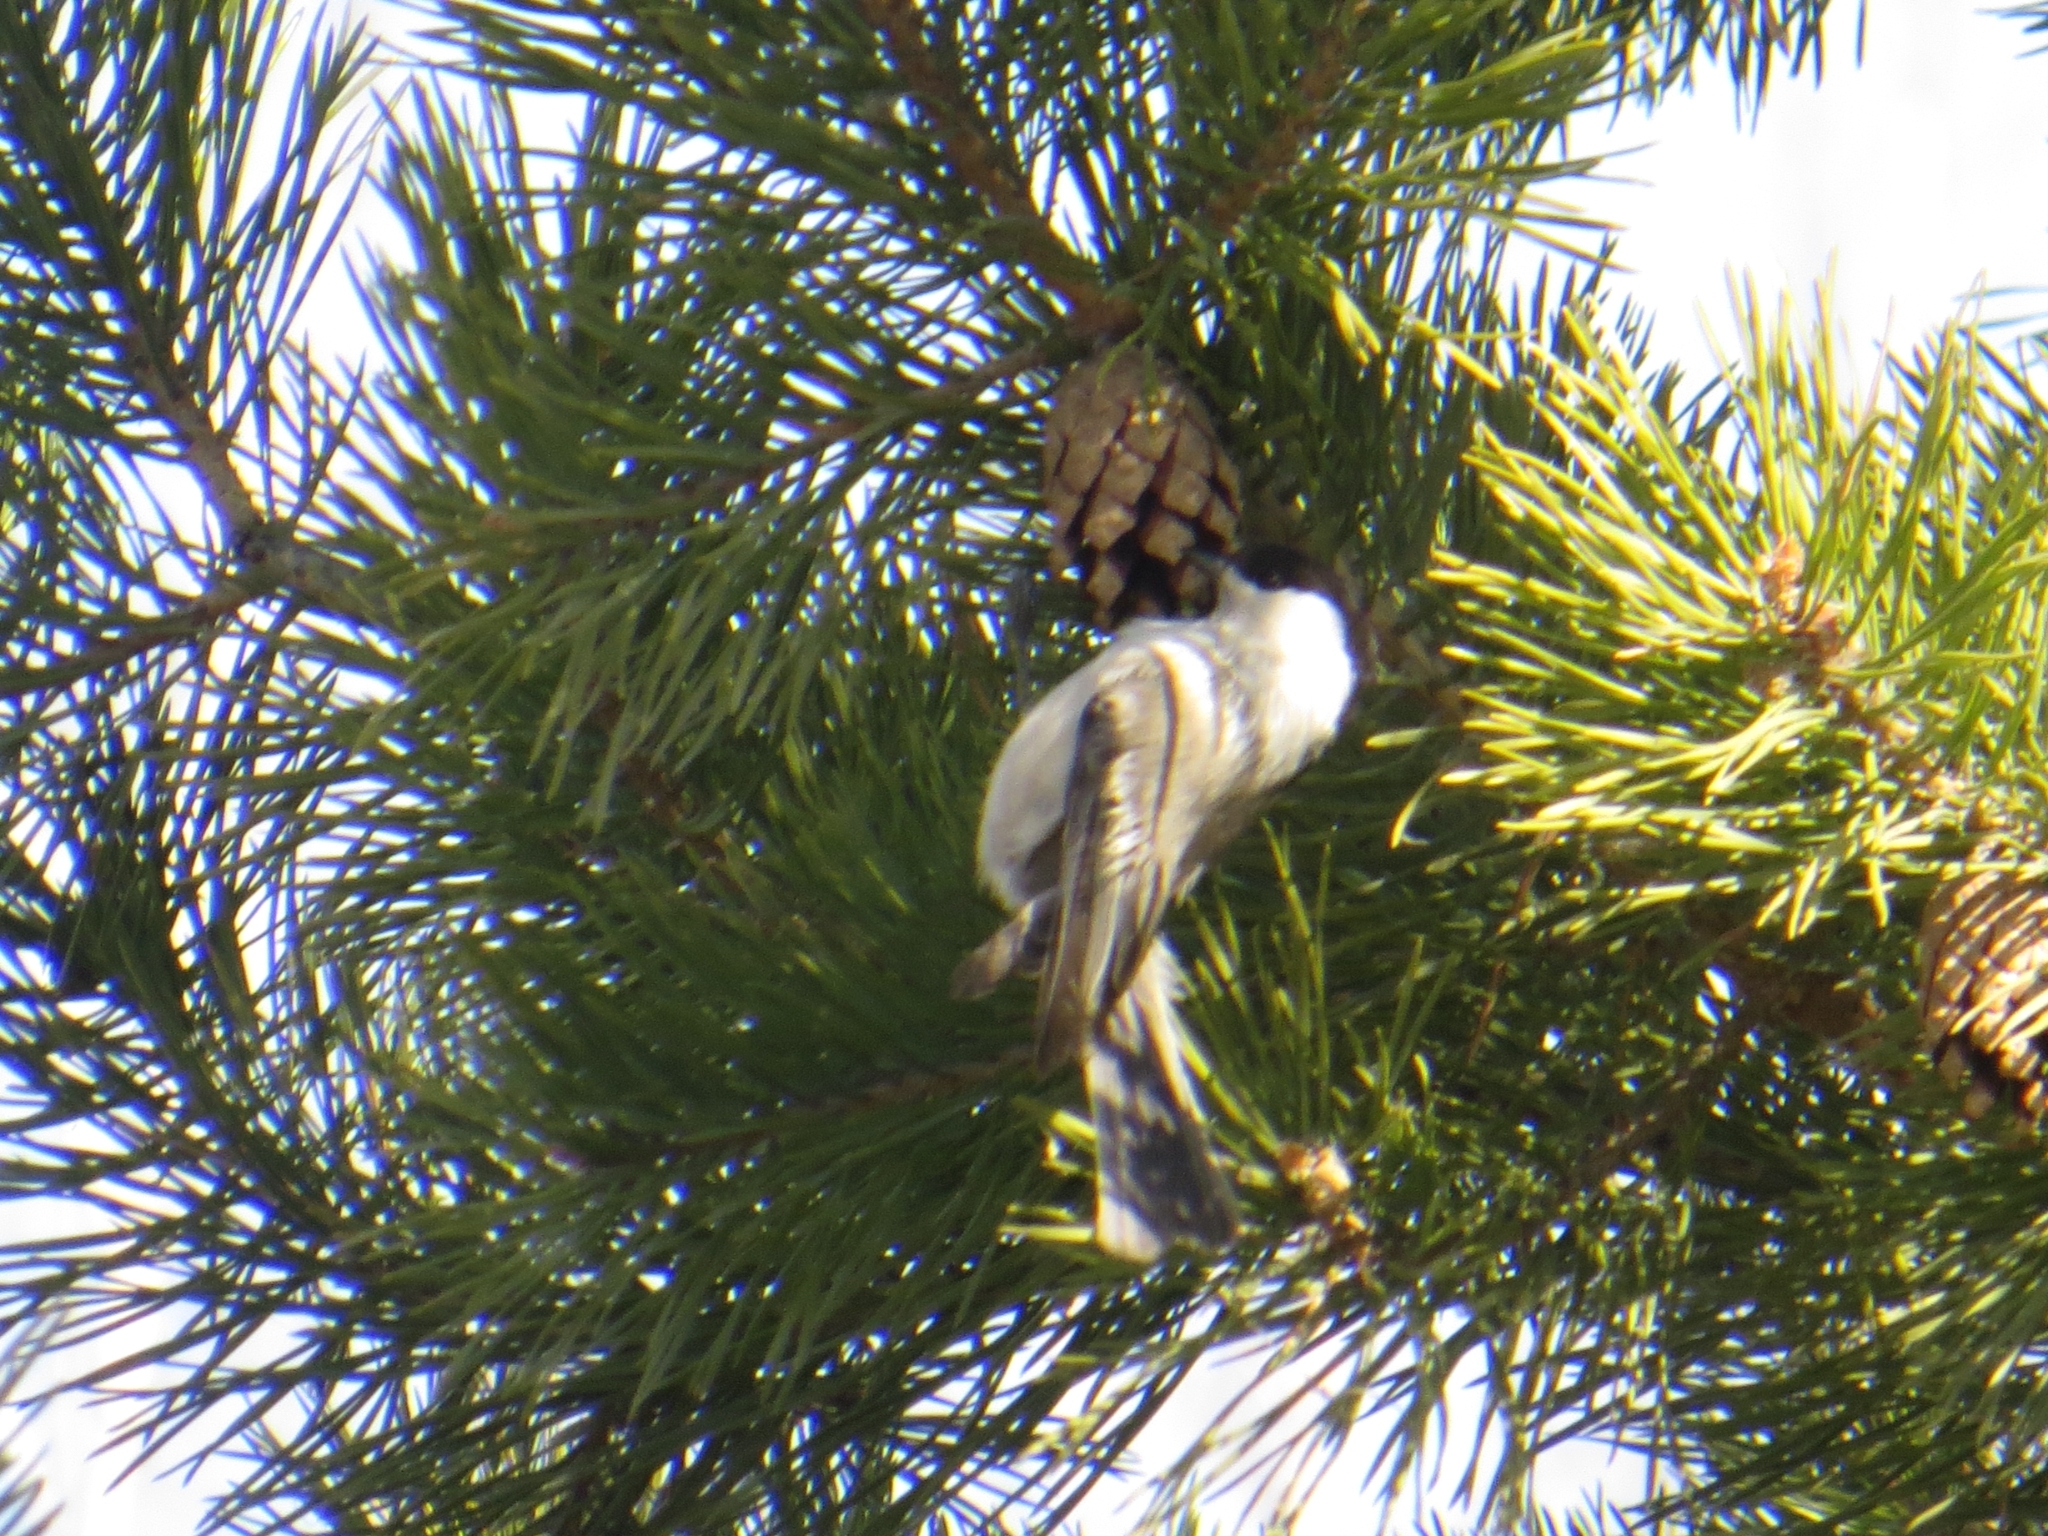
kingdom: Animalia
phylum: Chordata
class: Aves
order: Passeriformes
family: Paridae
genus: Poecile
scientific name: Poecile montanus
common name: Willow tit
